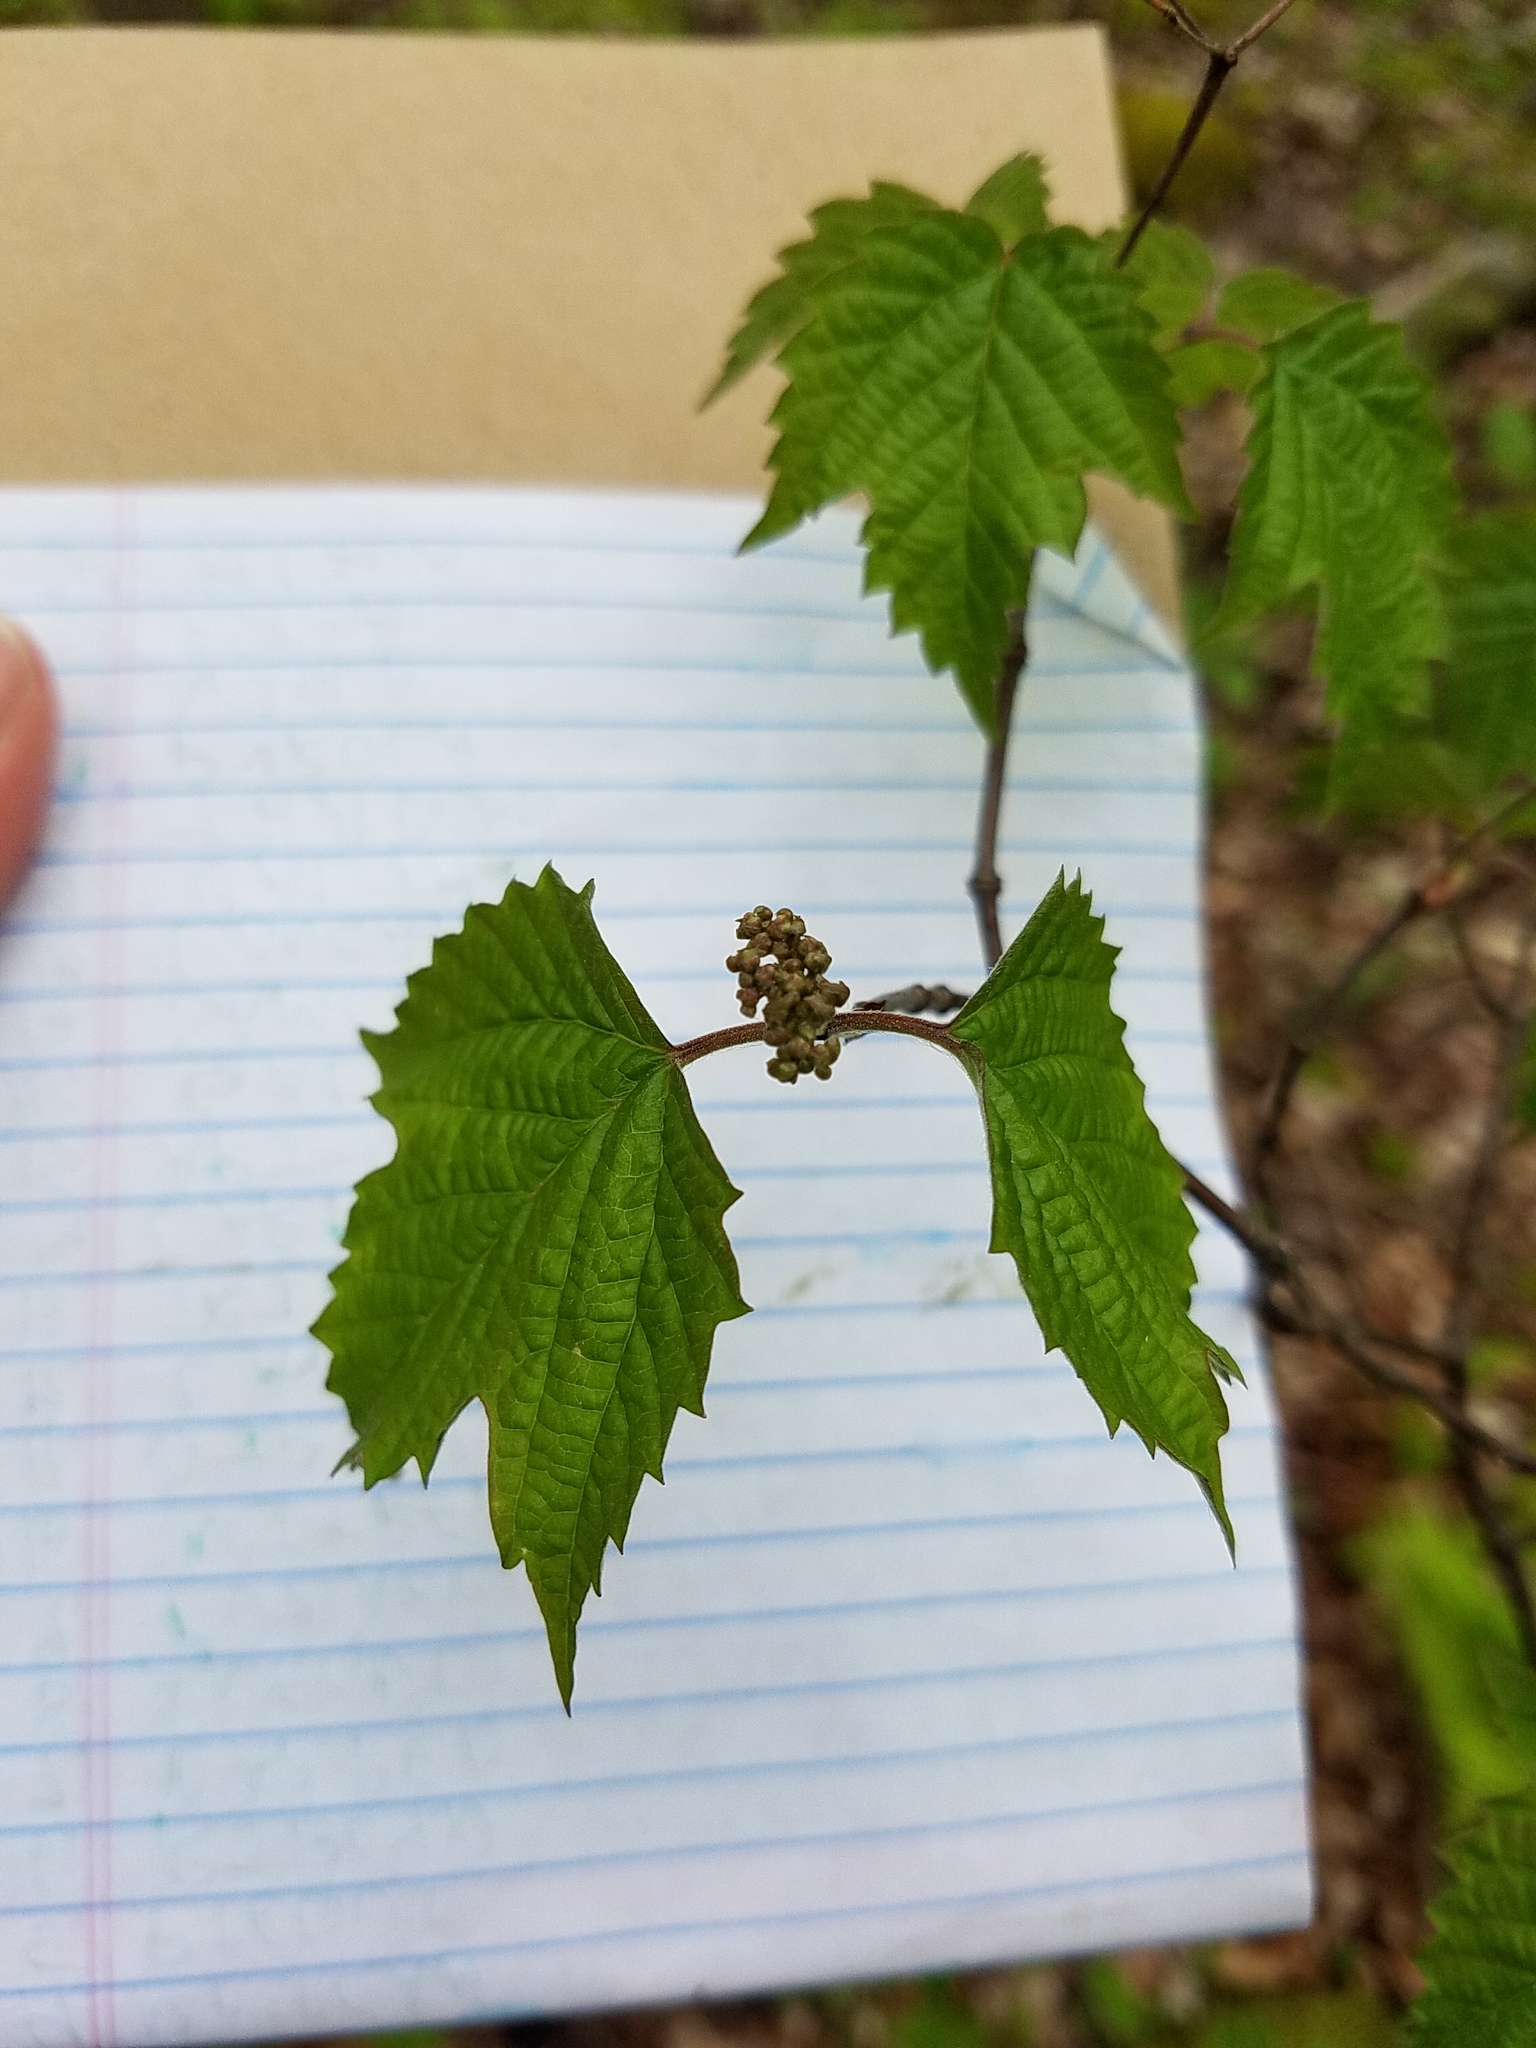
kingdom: Plantae
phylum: Tracheophyta
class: Magnoliopsida
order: Dipsacales
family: Viburnaceae
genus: Viburnum
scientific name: Viburnum acerifolium
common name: Dockmackie
